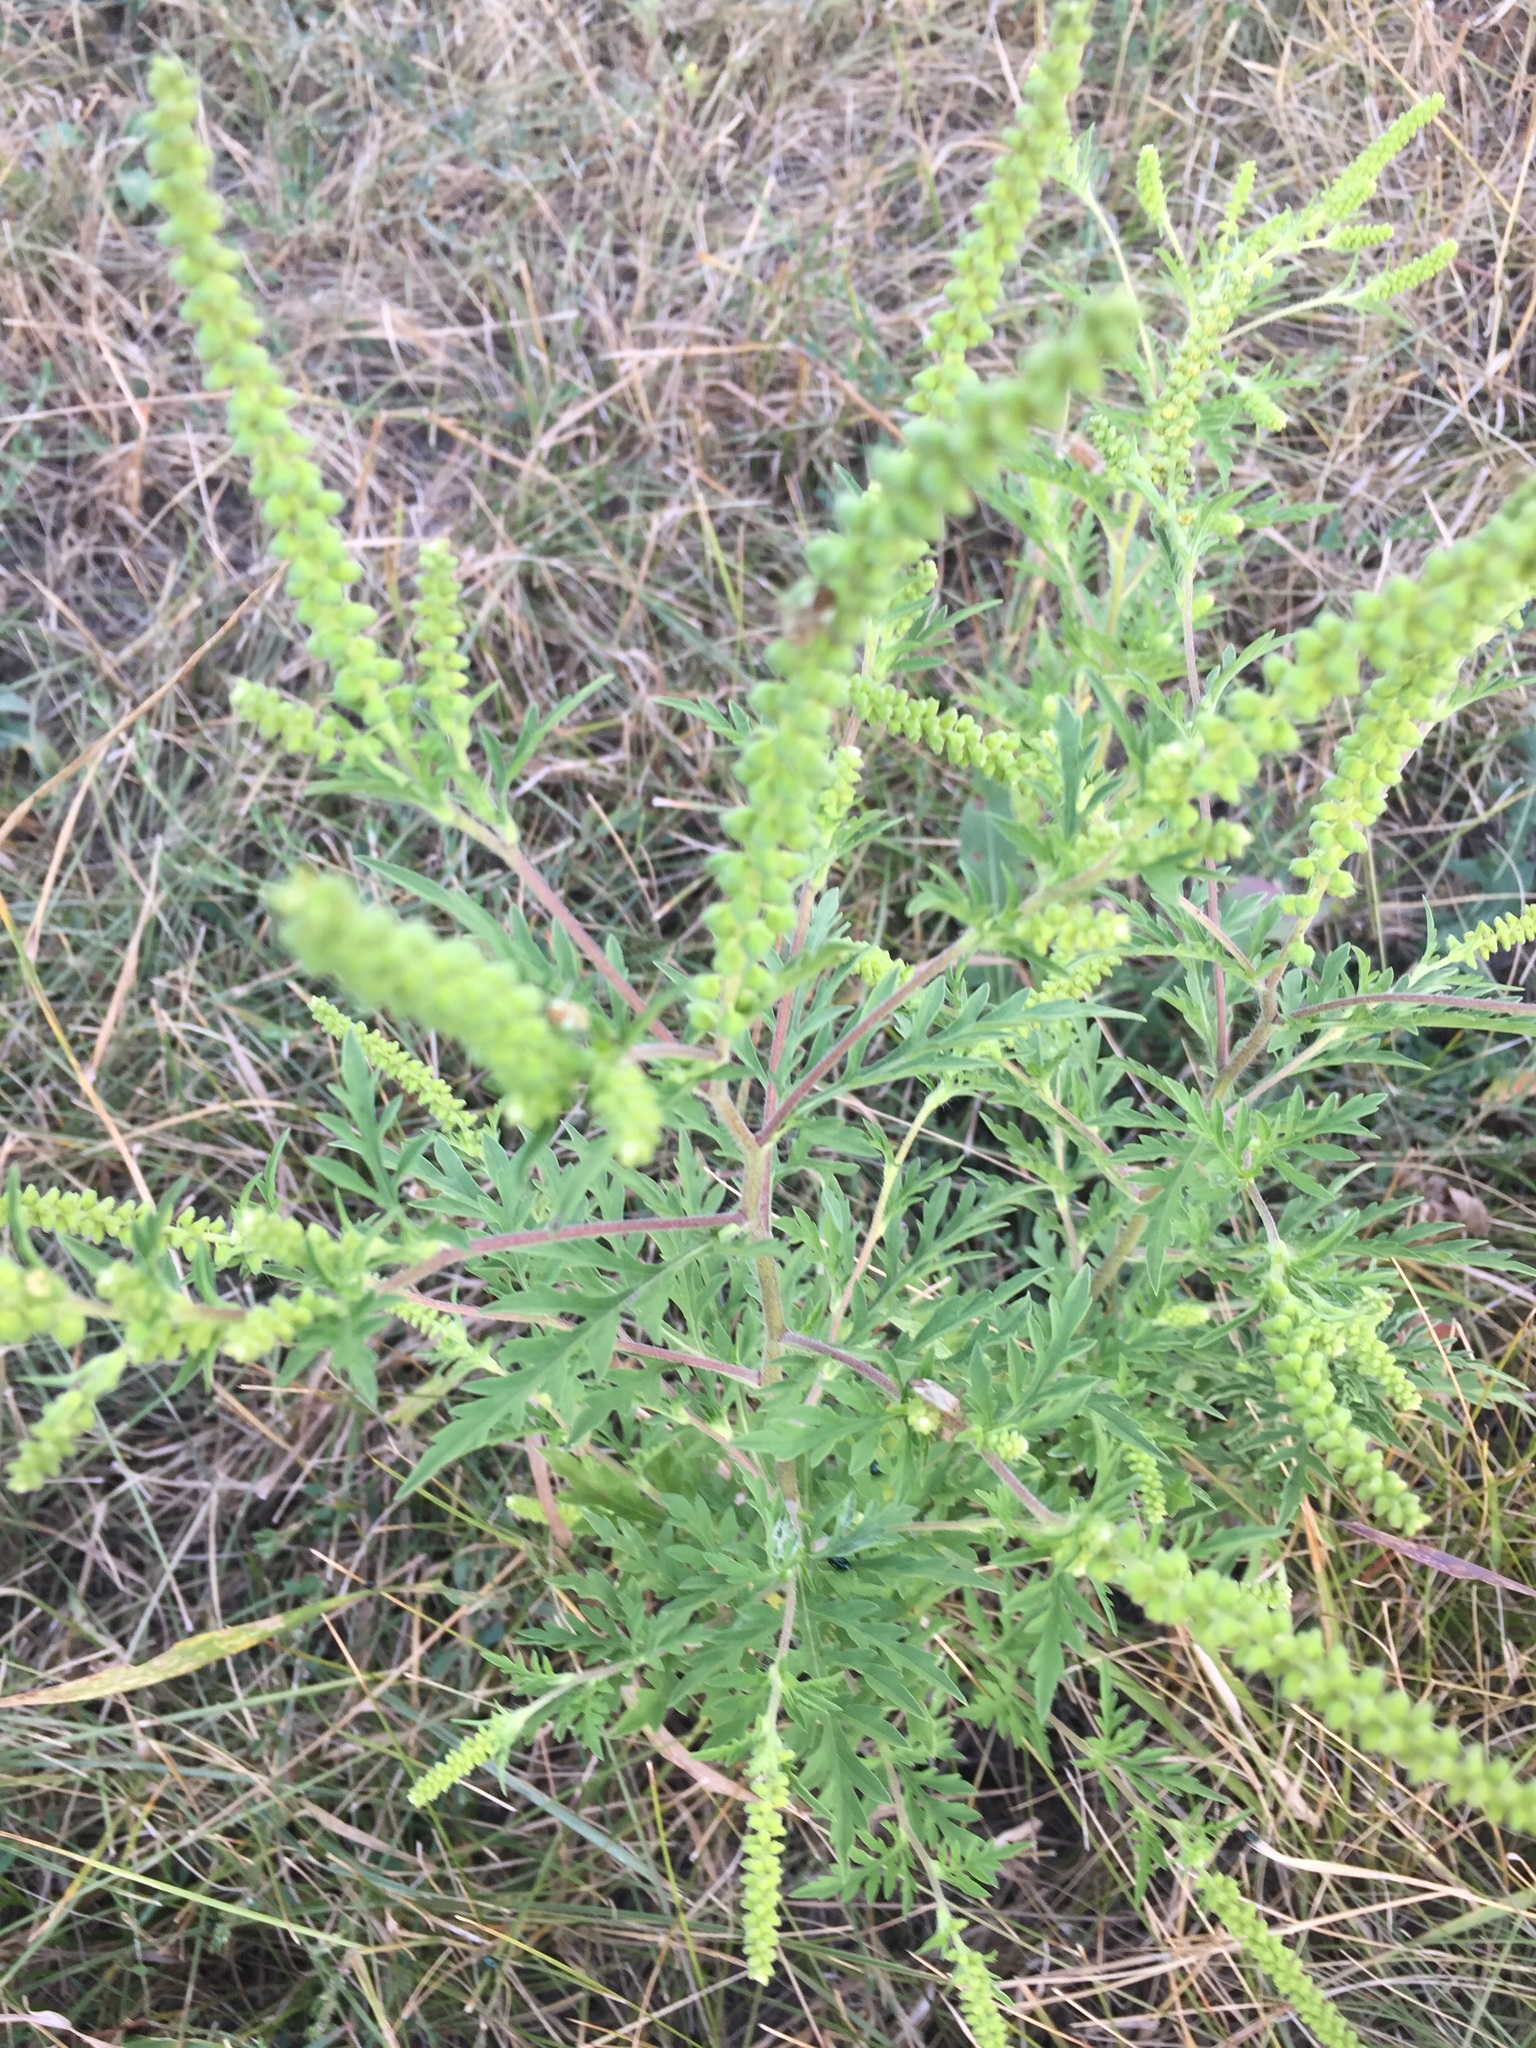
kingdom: Plantae
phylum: Tracheophyta
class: Magnoliopsida
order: Asterales
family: Asteraceae
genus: Ambrosia
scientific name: Ambrosia artemisiifolia
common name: Annual ragweed
